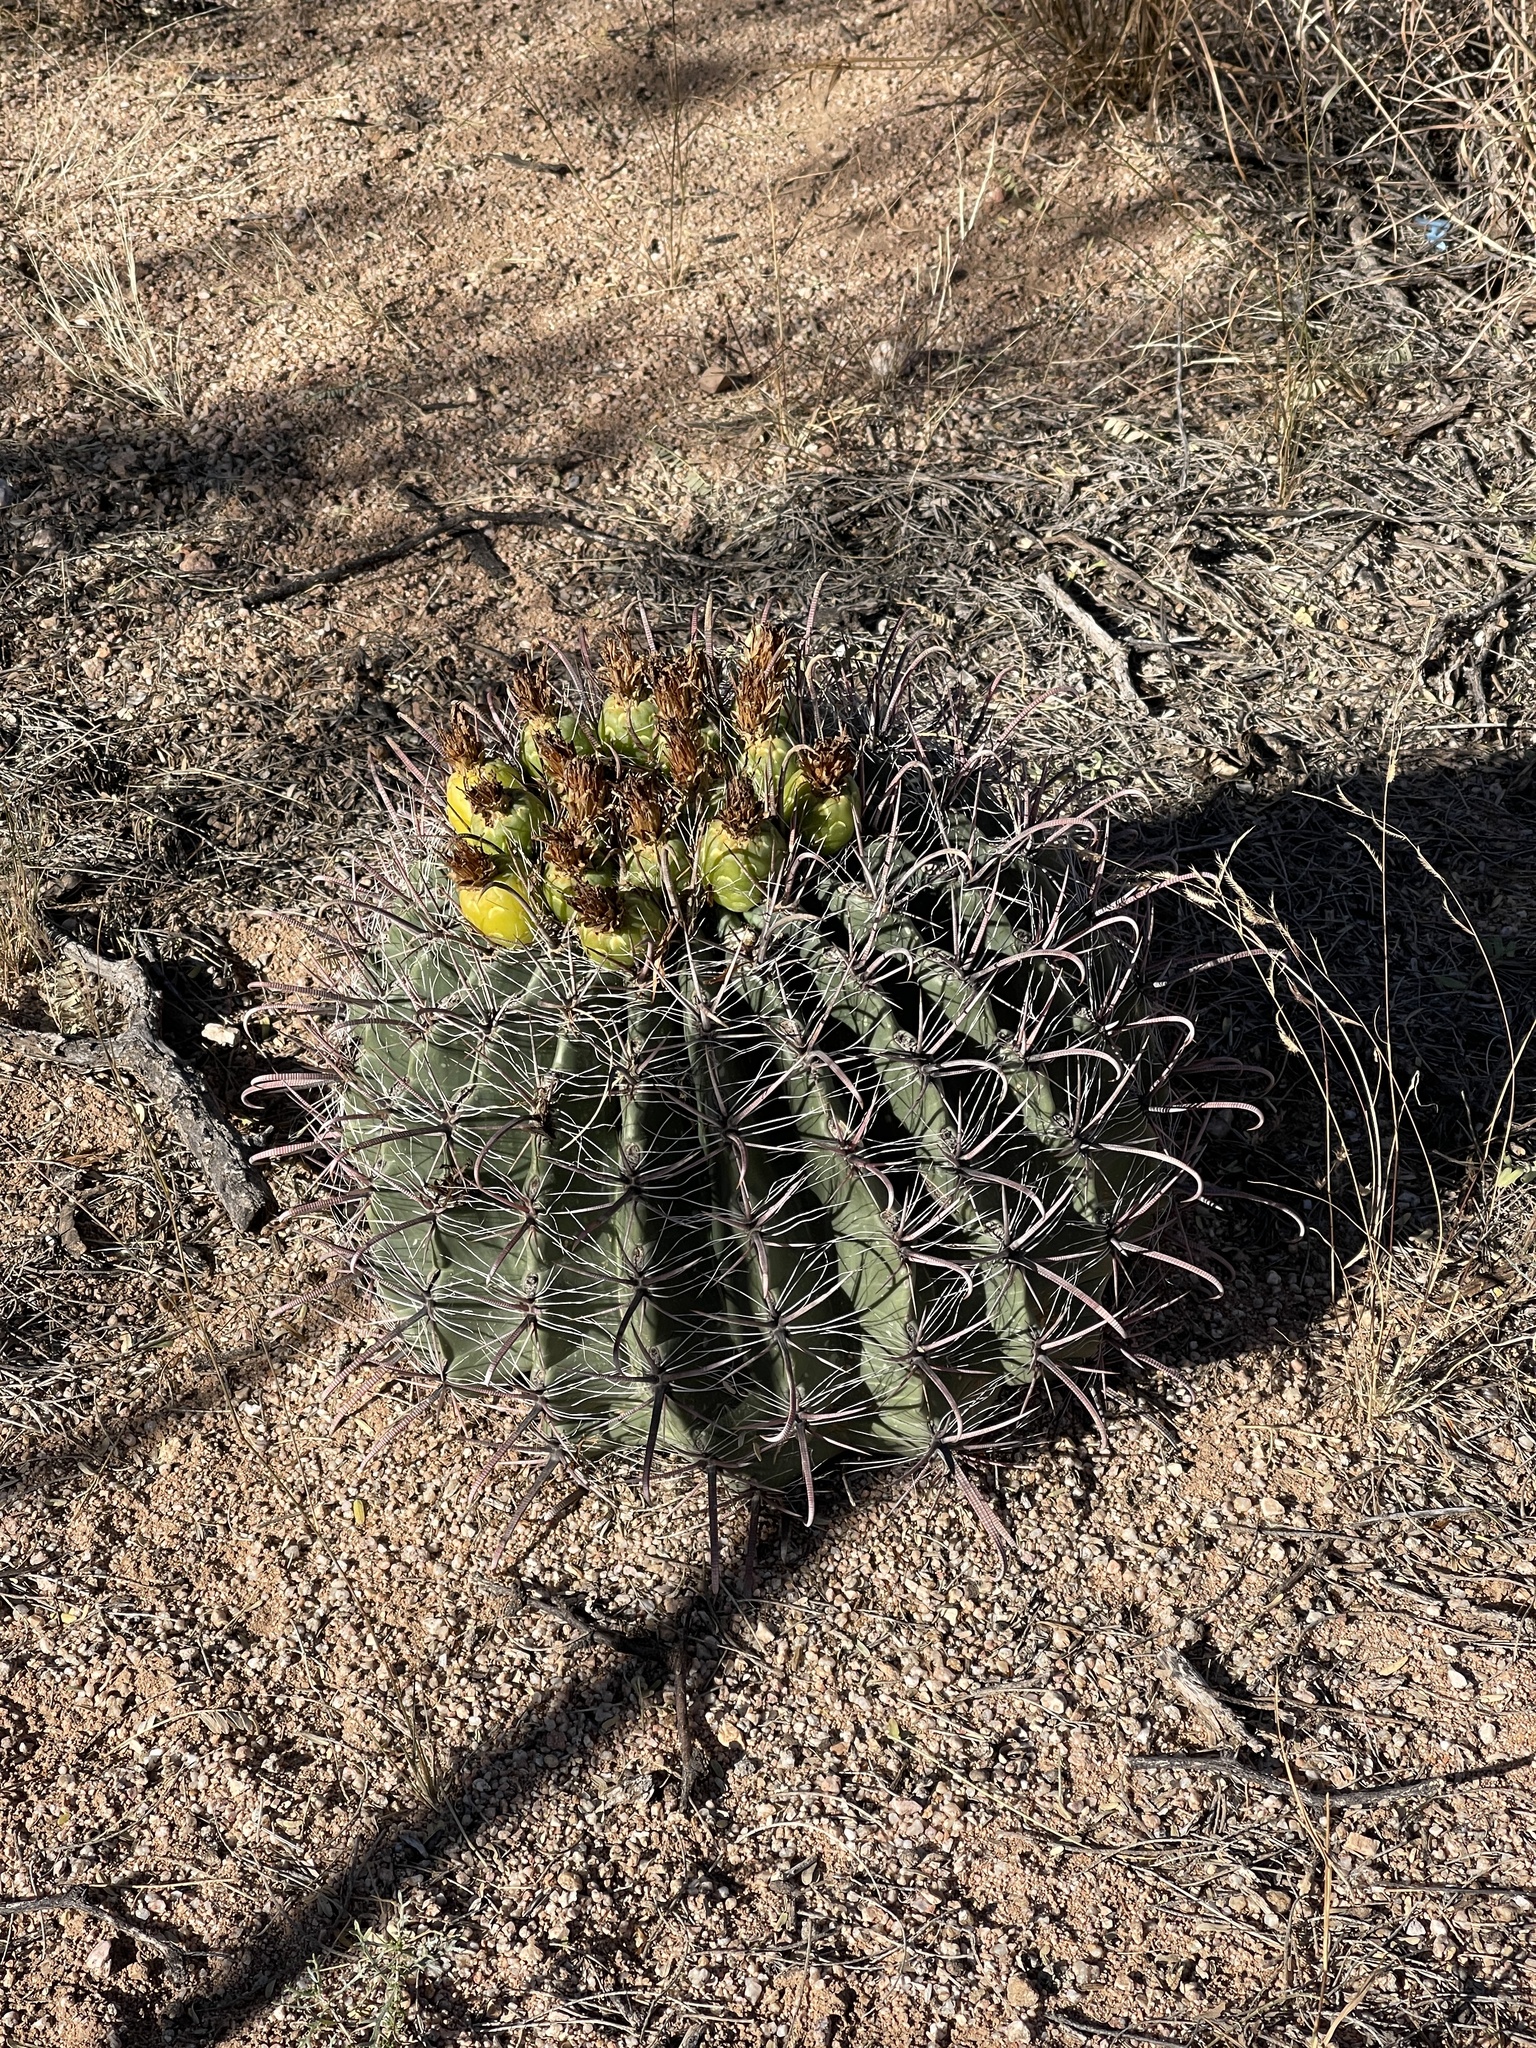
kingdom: Plantae
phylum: Tracheophyta
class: Magnoliopsida
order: Caryophyllales
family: Cactaceae
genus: Ferocactus
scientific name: Ferocactus wislizeni
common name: Candy barrel cactus
